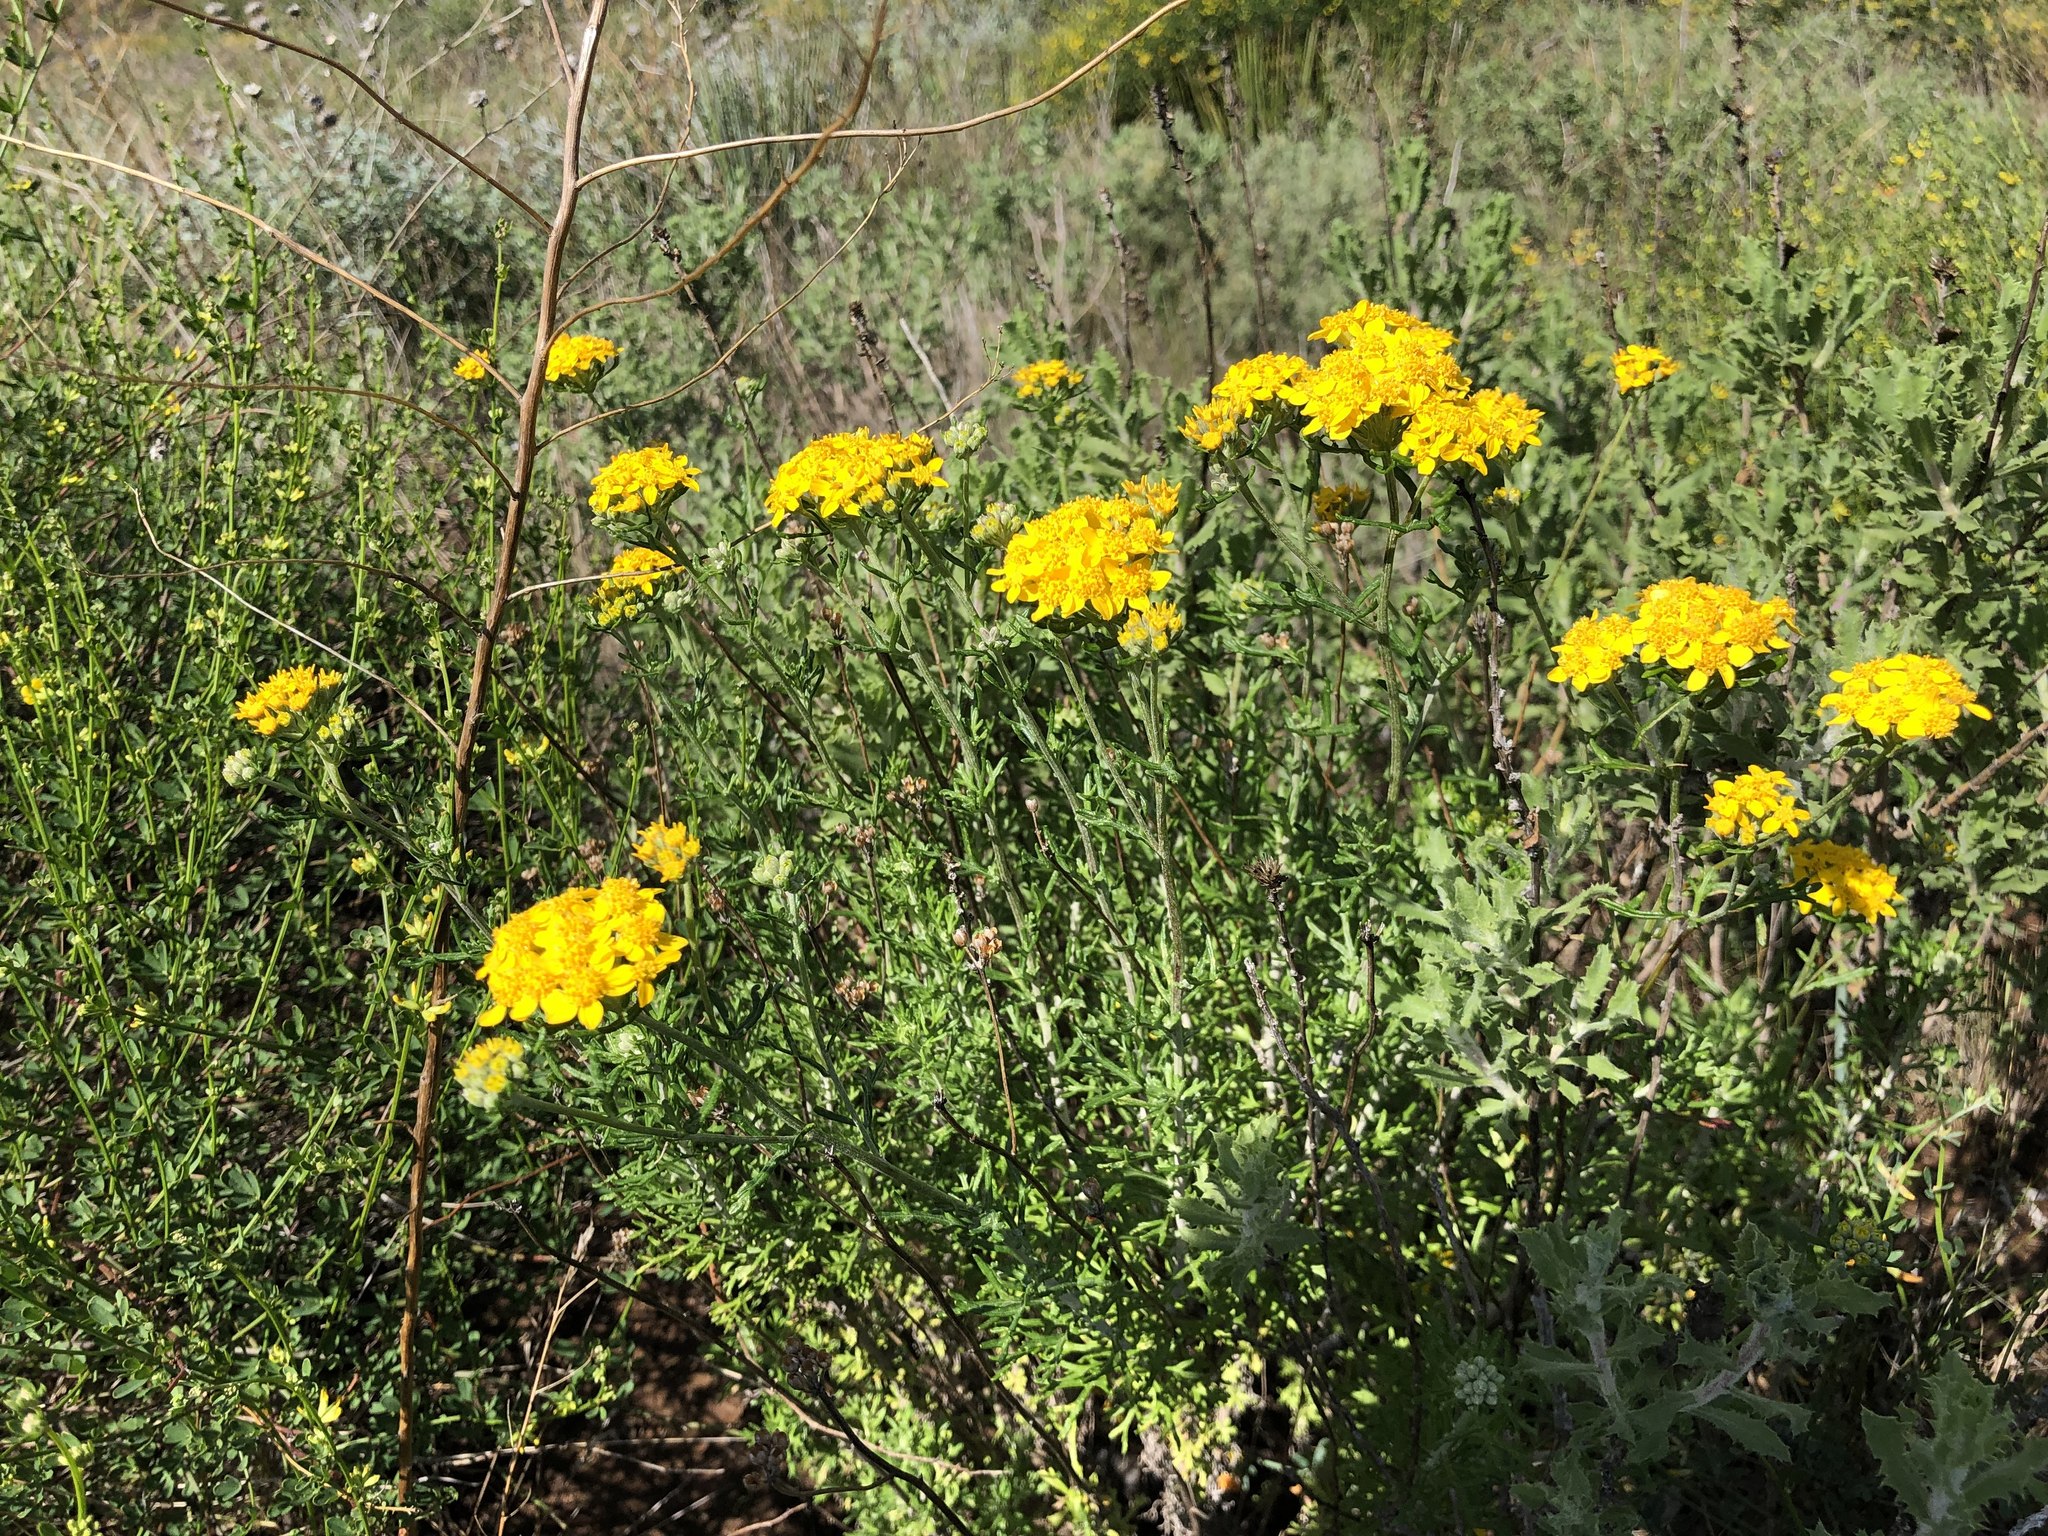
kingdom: Plantae
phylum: Tracheophyta
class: Magnoliopsida
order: Asterales
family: Asteraceae
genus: Eriophyllum
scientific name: Eriophyllum confertiflorum
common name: Golden-yarrow
